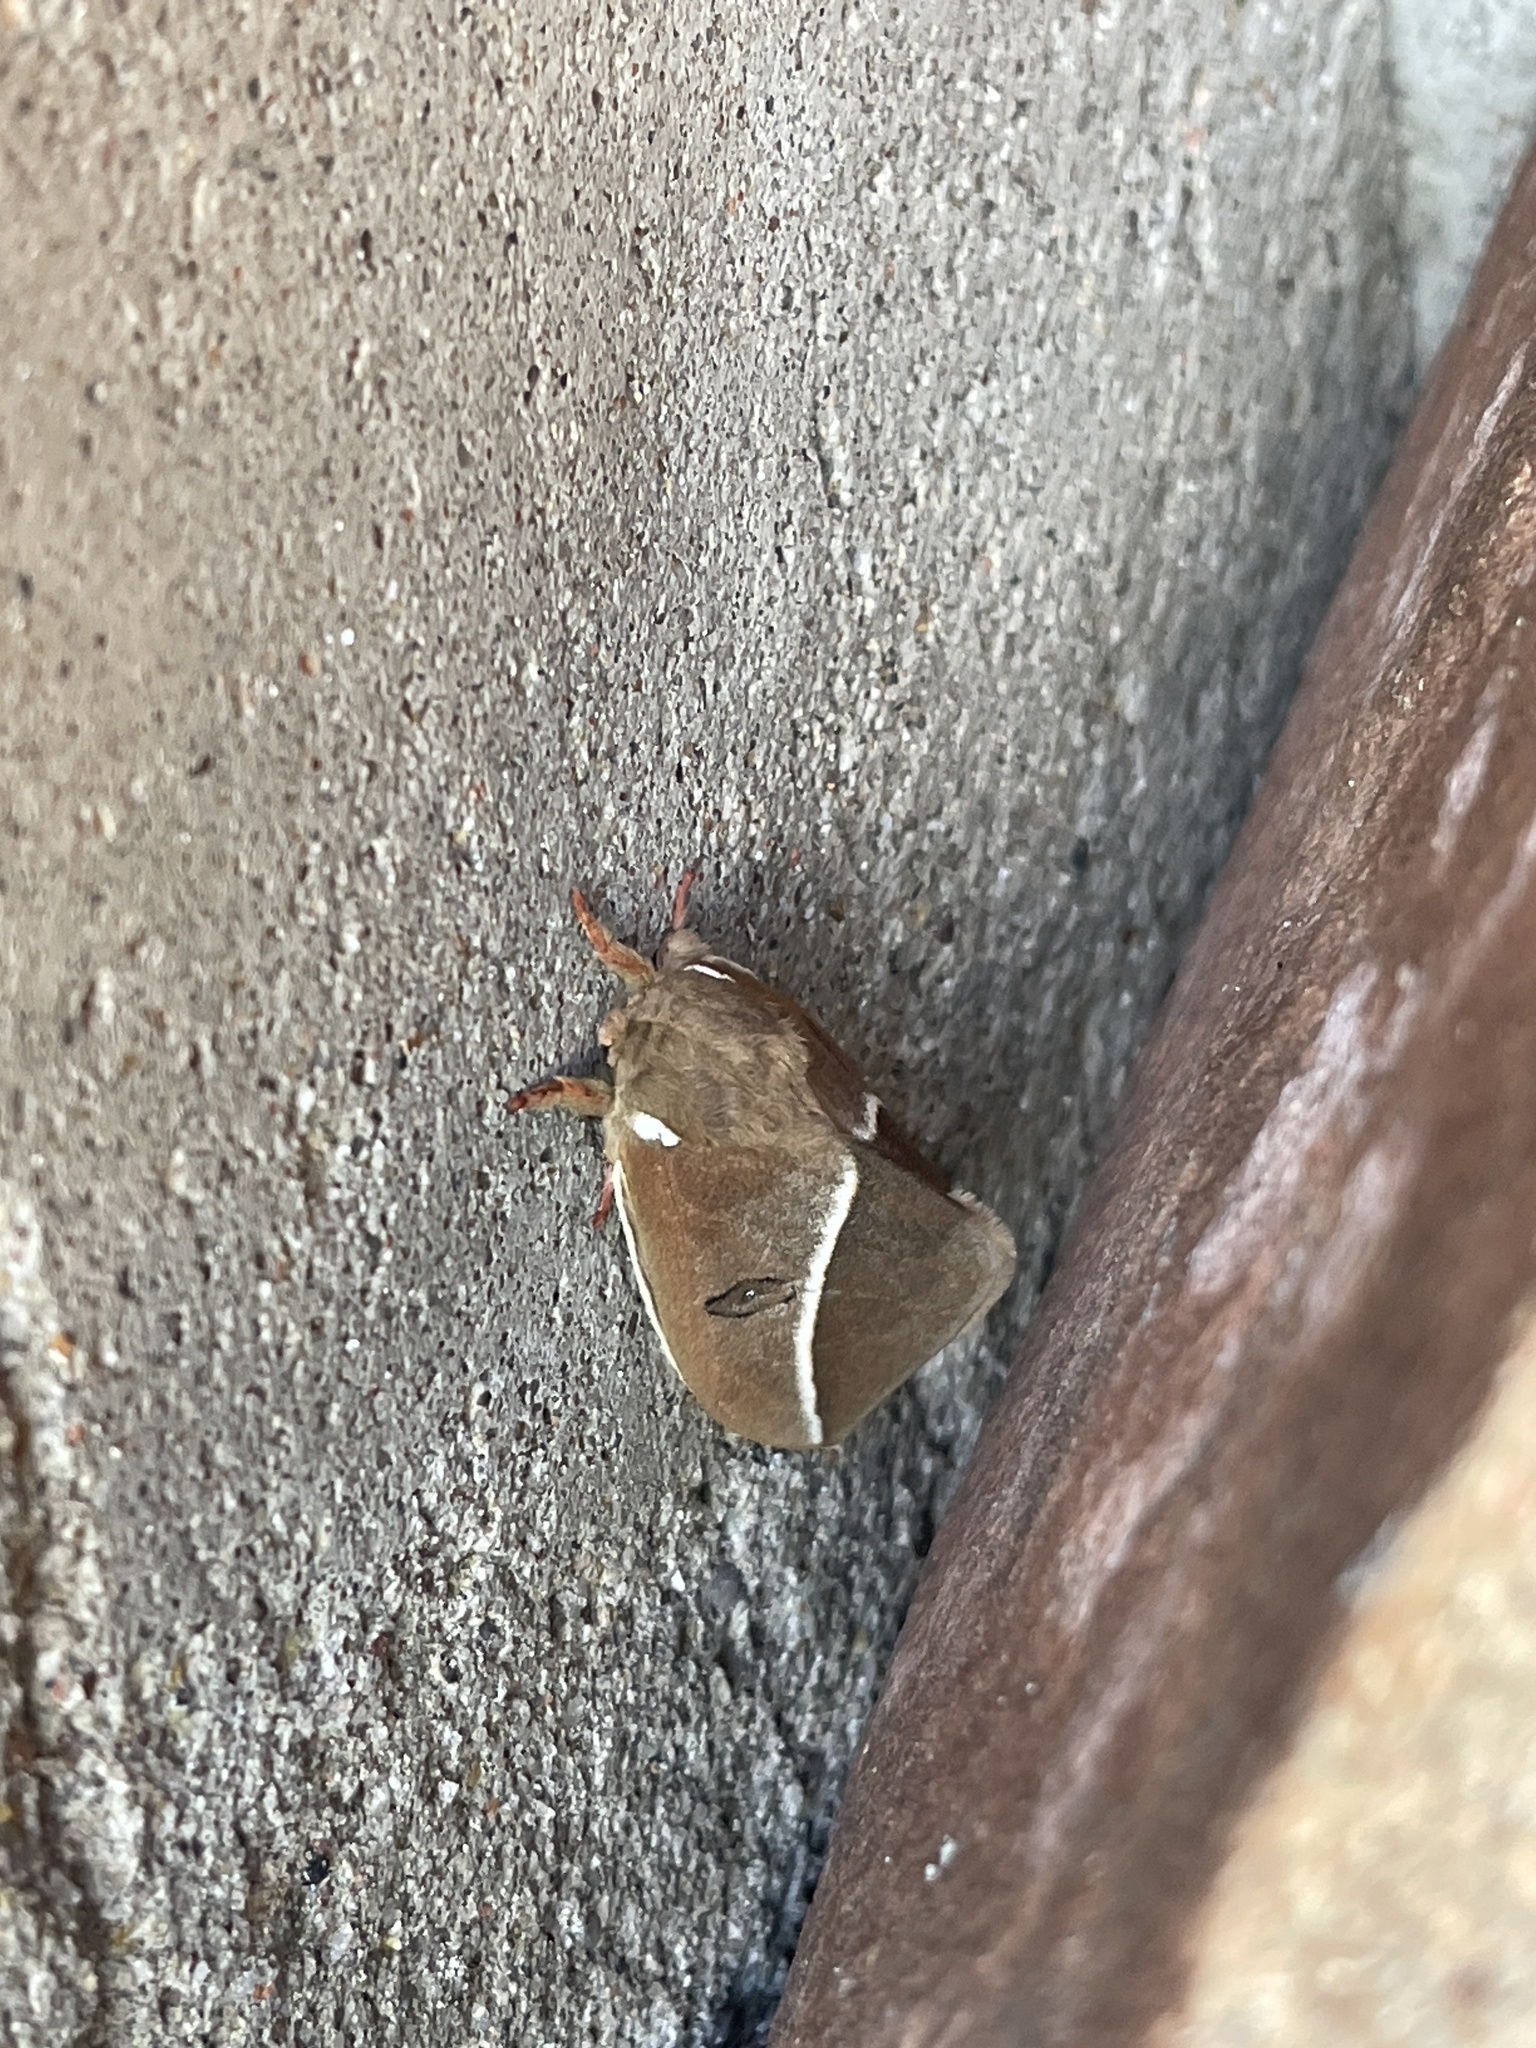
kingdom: Animalia
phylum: Arthropoda
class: Insecta
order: Lepidoptera
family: Saturniidae
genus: Automeris
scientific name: Automeris zephyria
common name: Zephyr eyed silkmoth
